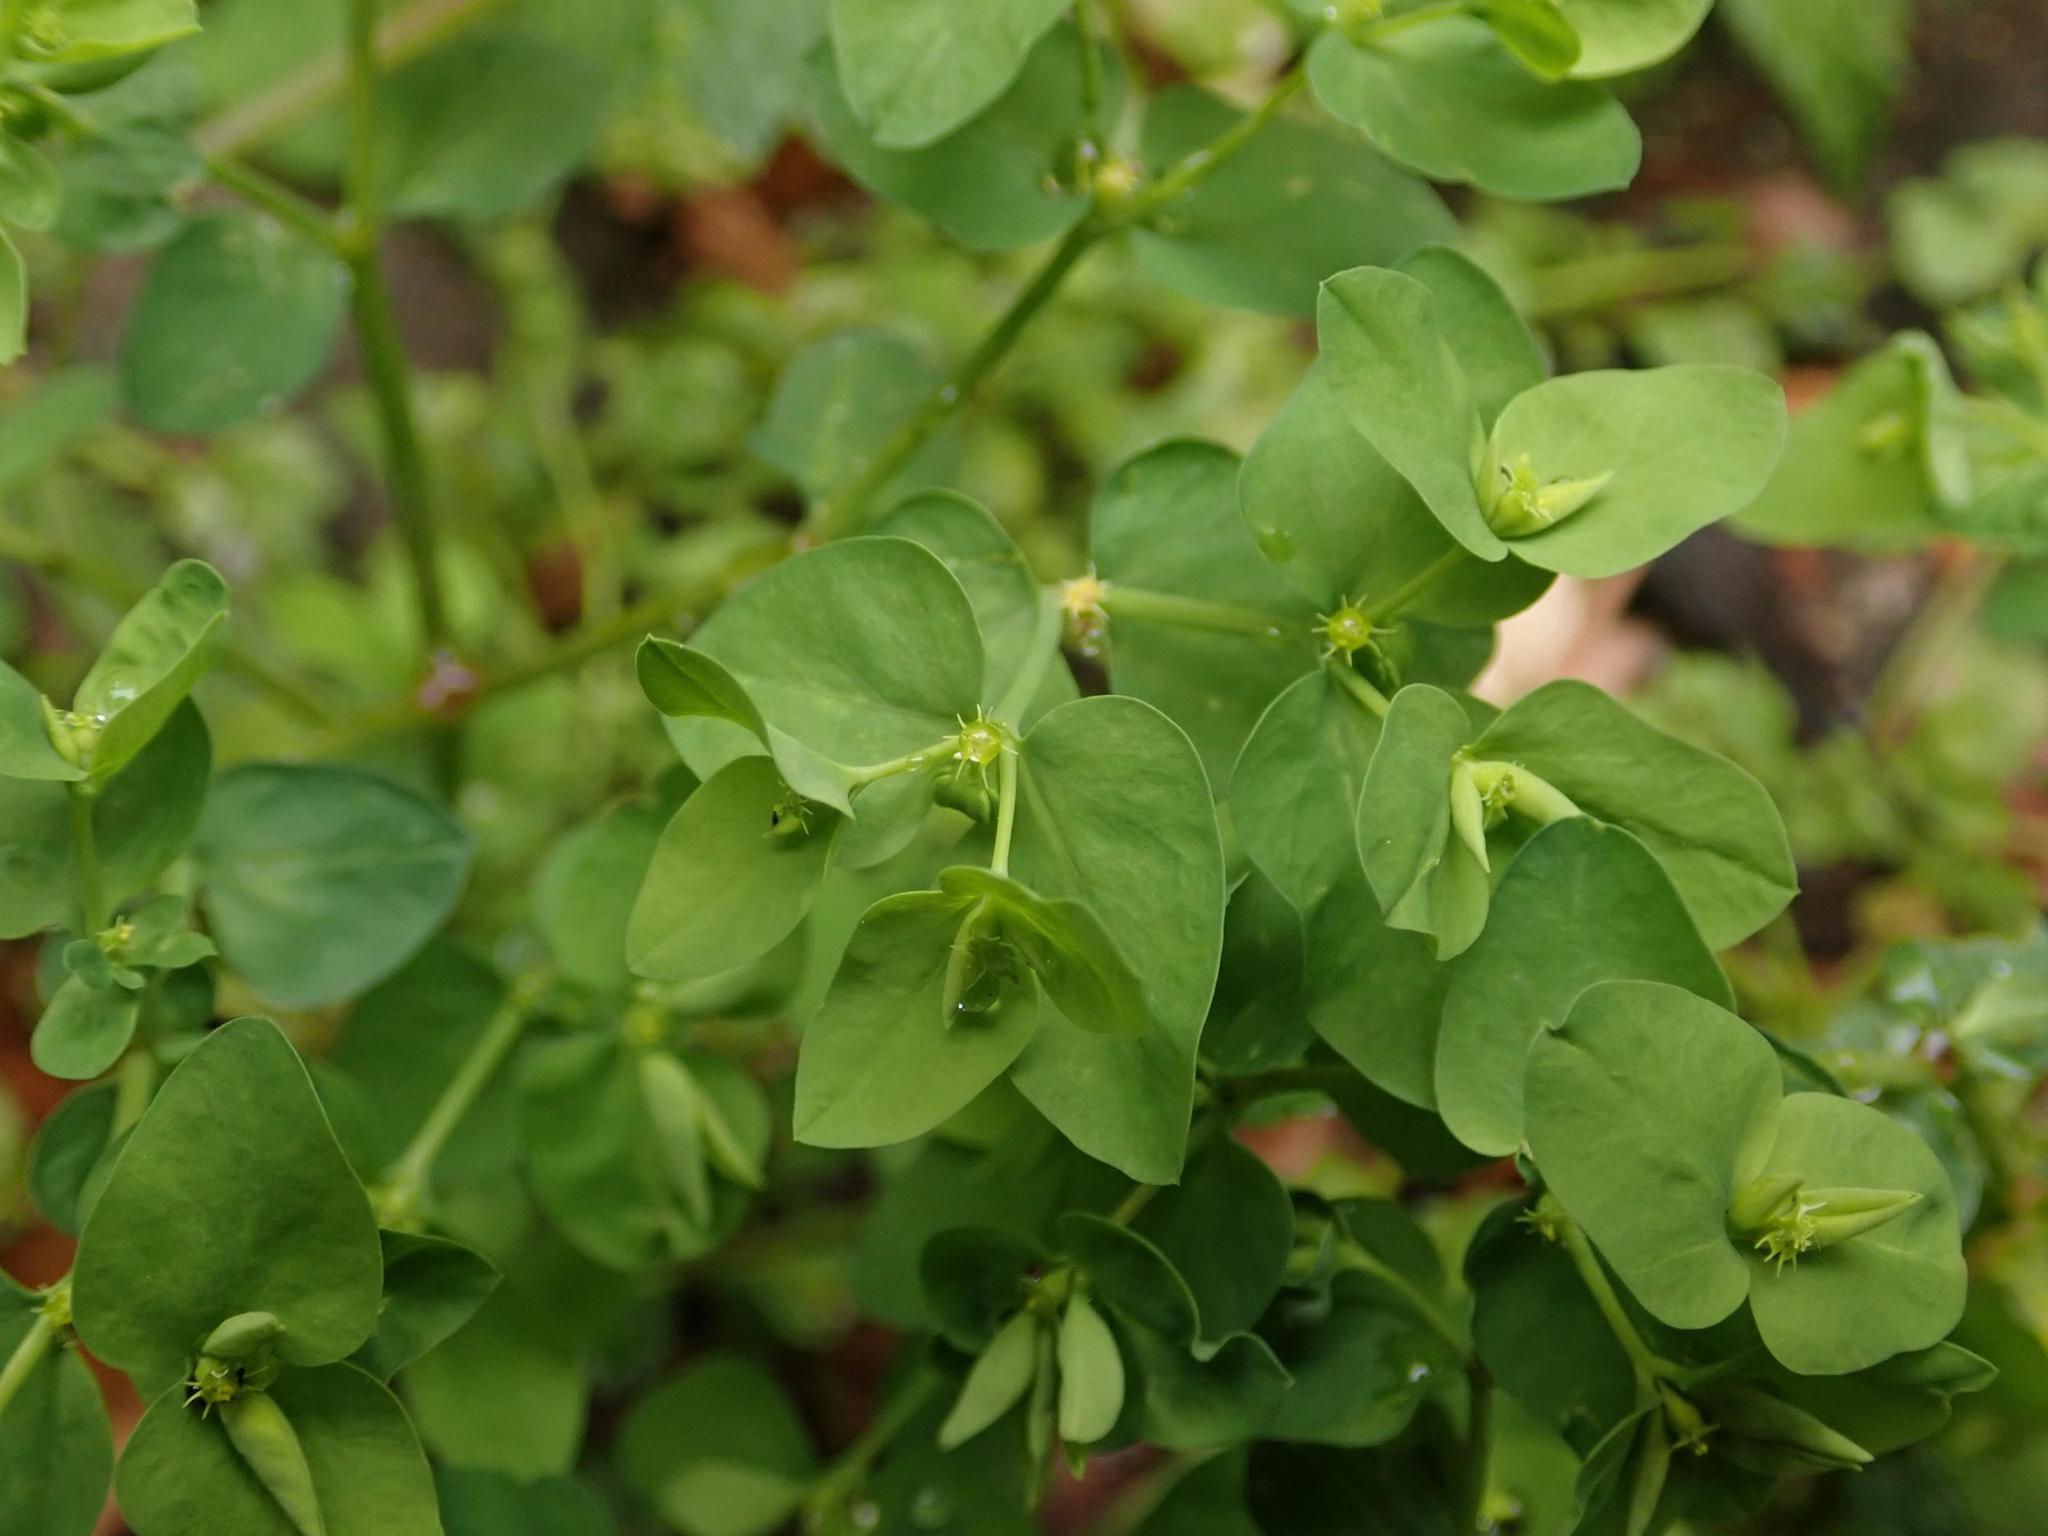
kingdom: Plantae
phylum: Tracheophyta
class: Magnoliopsida
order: Malpighiales
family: Euphorbiaceae
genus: Euphorbia
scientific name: Euphorbia peplus
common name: Petty spurge
